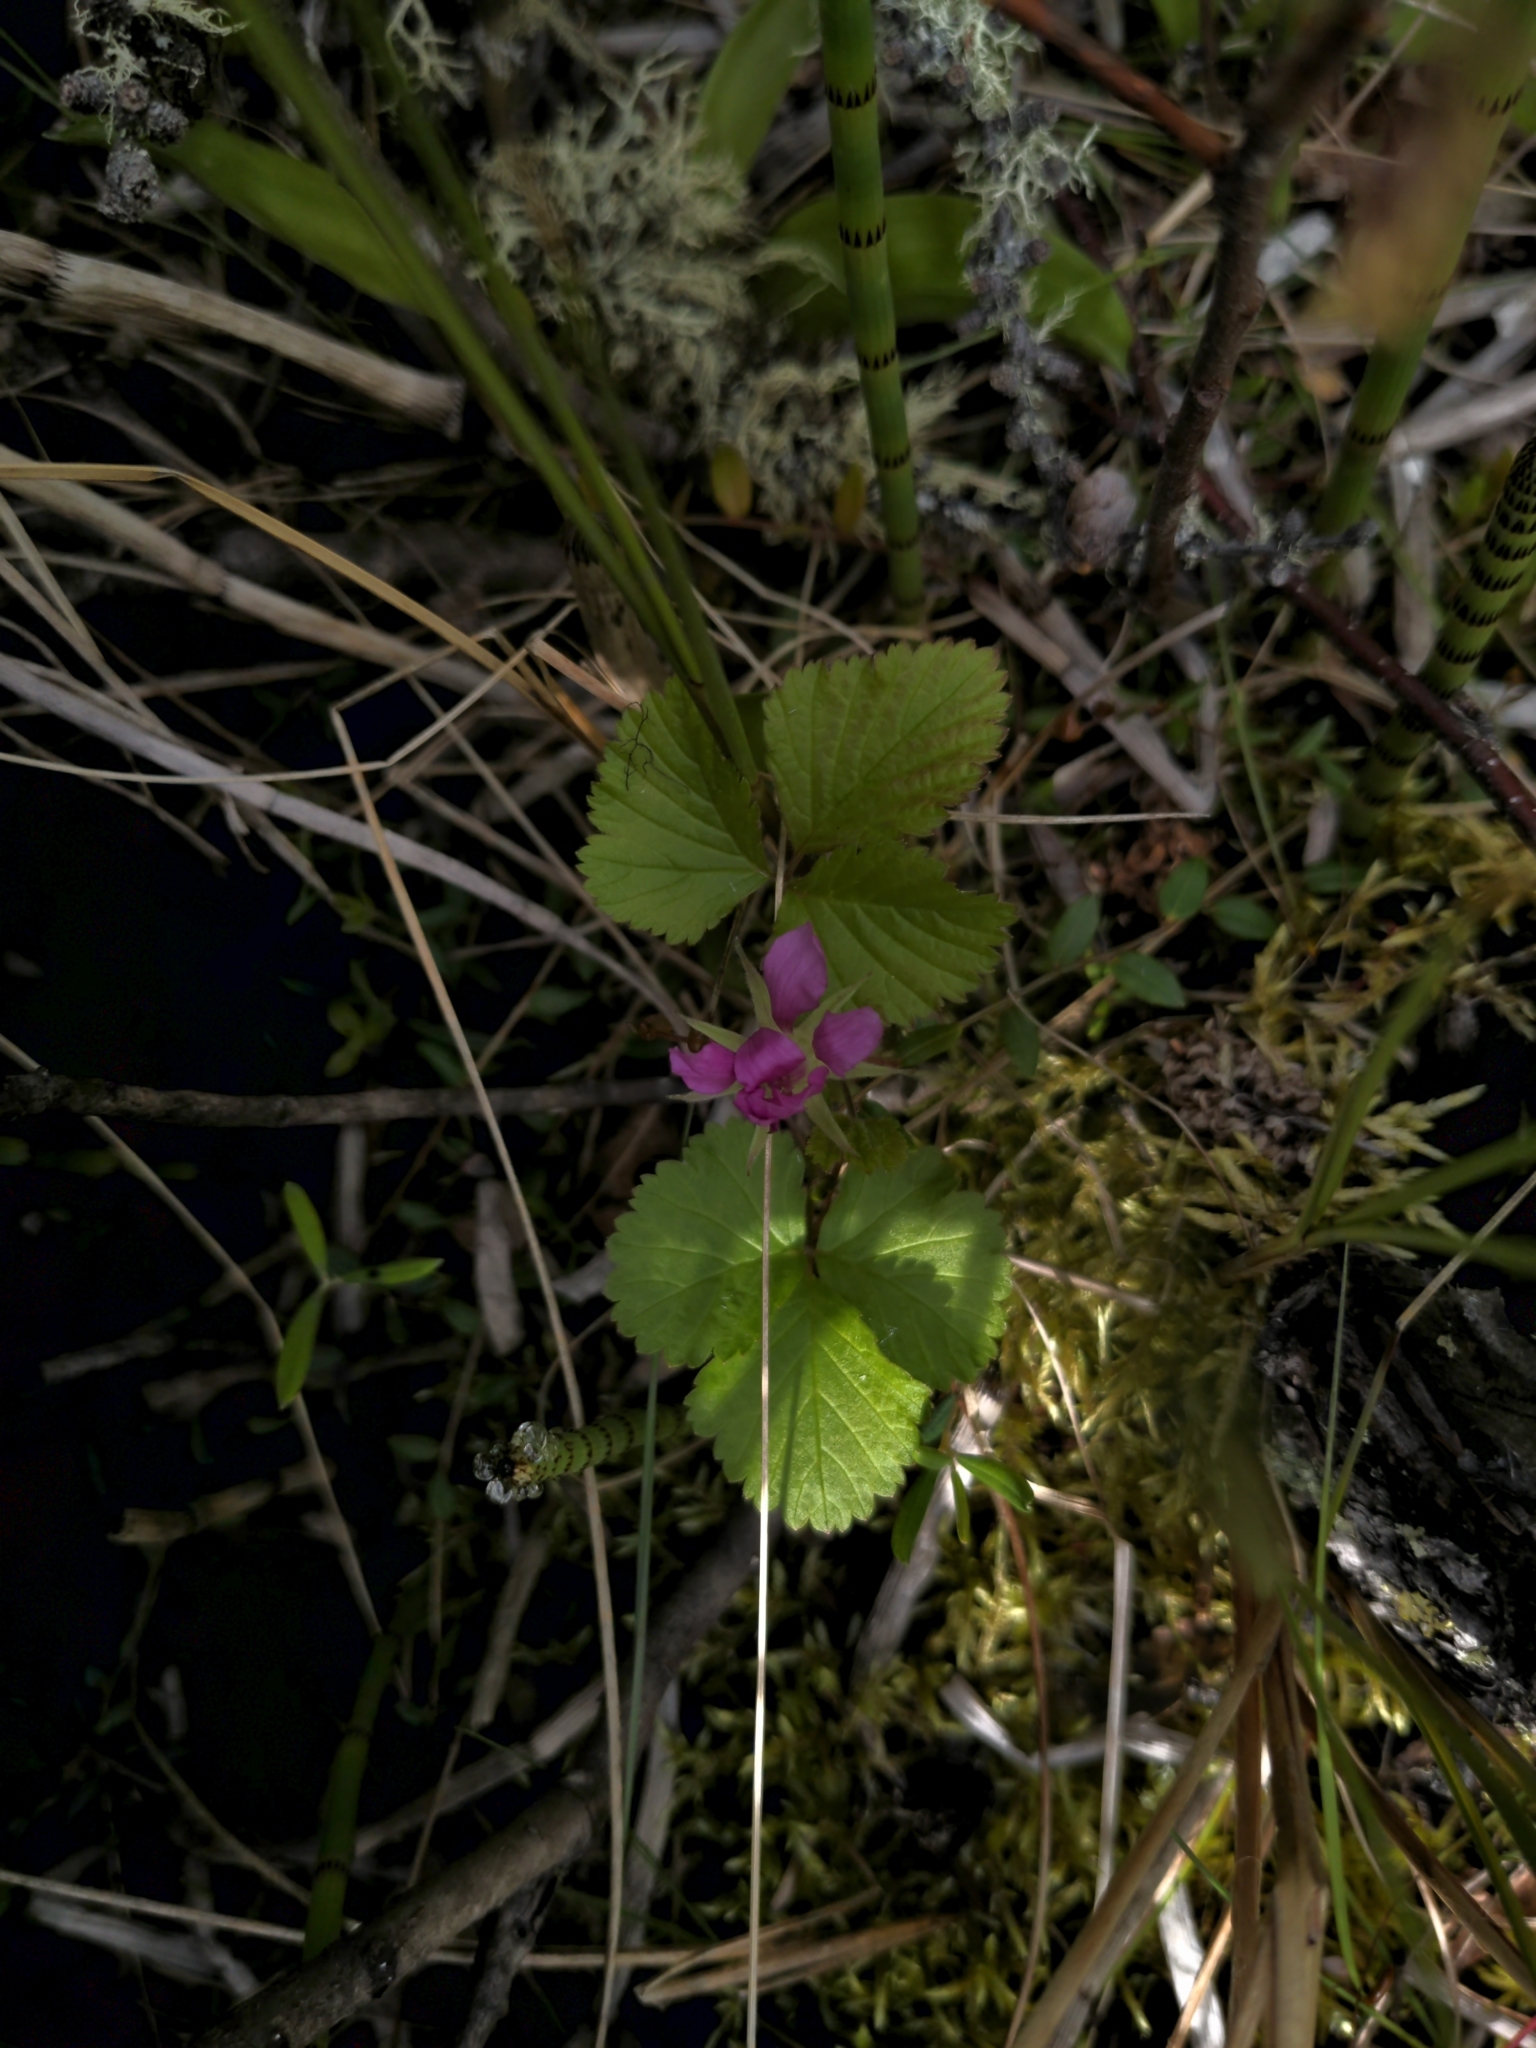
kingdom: Plantae
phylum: Tracheophyta
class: Magnoliopsida
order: Rosales
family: Rosaceae
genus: Rubus
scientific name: Rubus arcticus
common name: Arctic bramble
